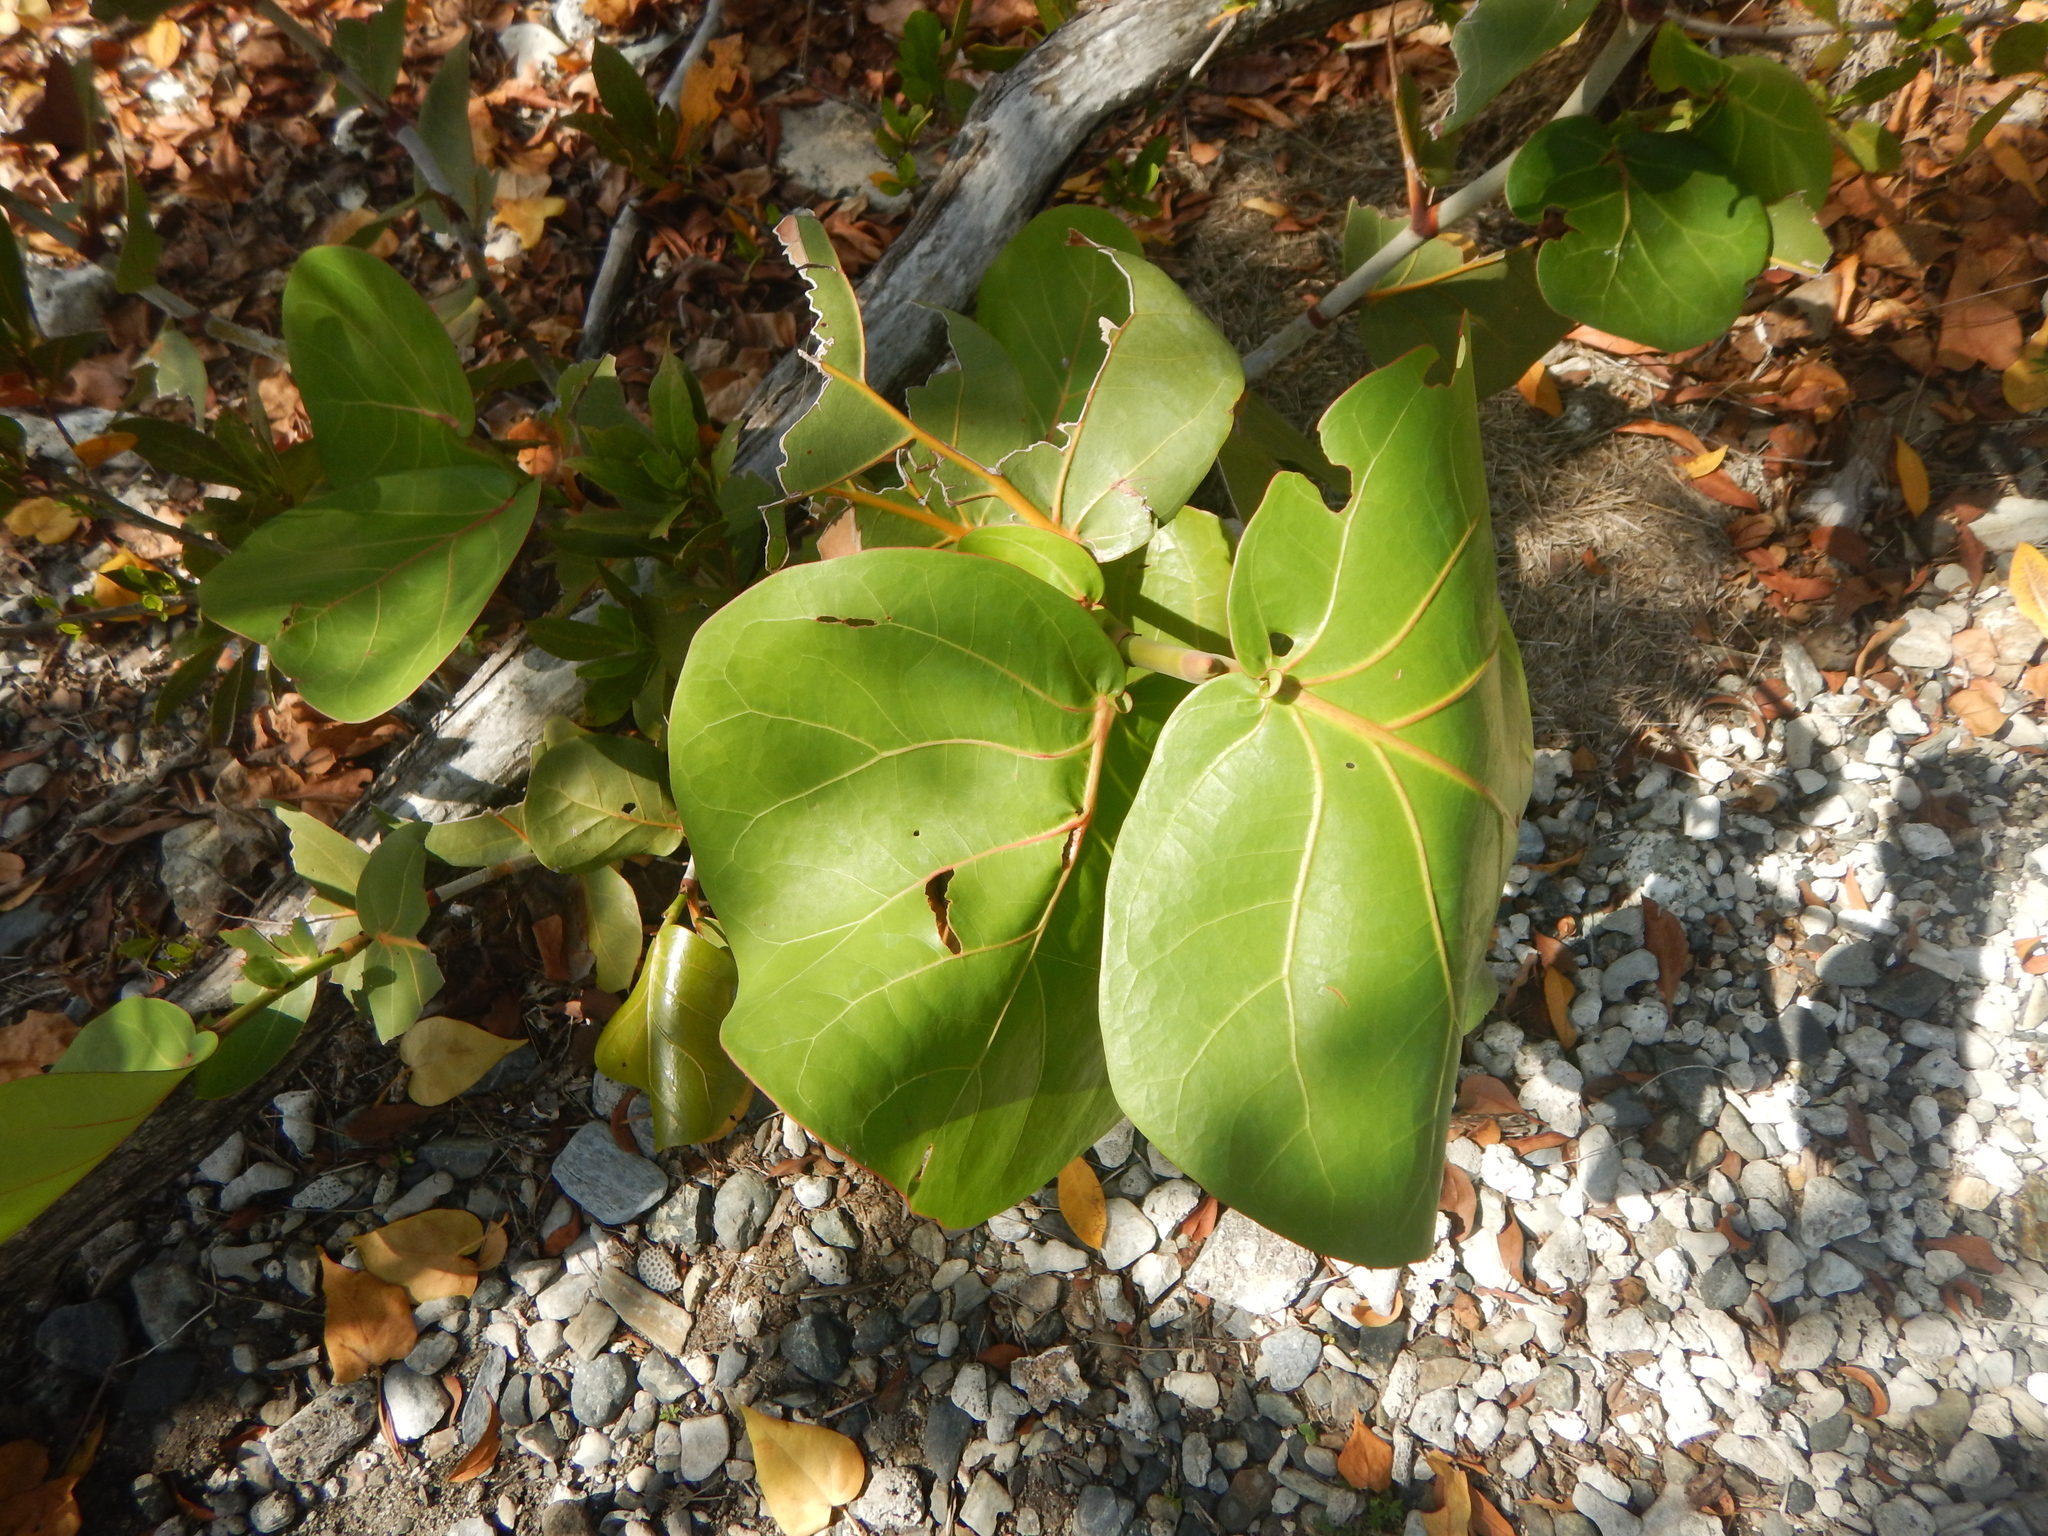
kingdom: Plantae
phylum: Tracheophyta
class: Magnoliopsida
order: Caryophyllales
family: Polygonaceae
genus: Coccoloba
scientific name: Coccoloba uvifera
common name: Seagrape
